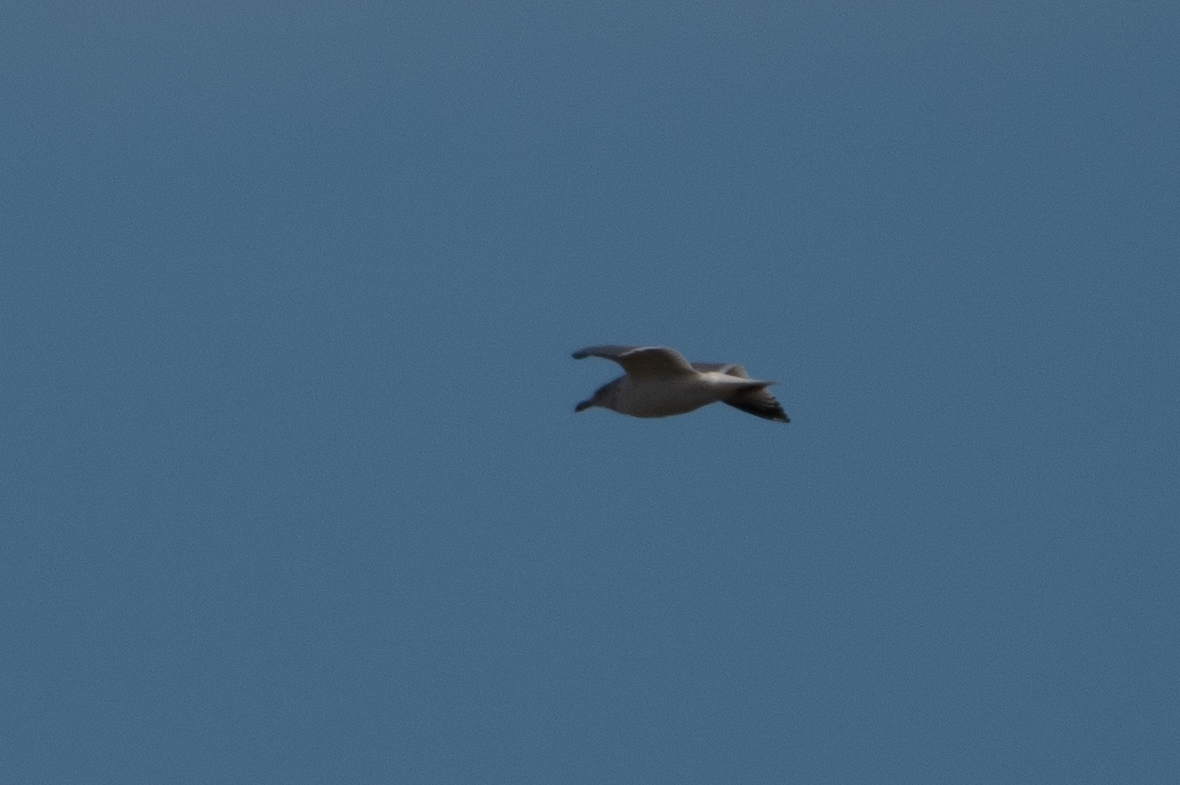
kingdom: Animalia
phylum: Chordata
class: Aves
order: Charadriiformes
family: Laridae
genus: Larus
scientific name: Larus californicus
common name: California gull
